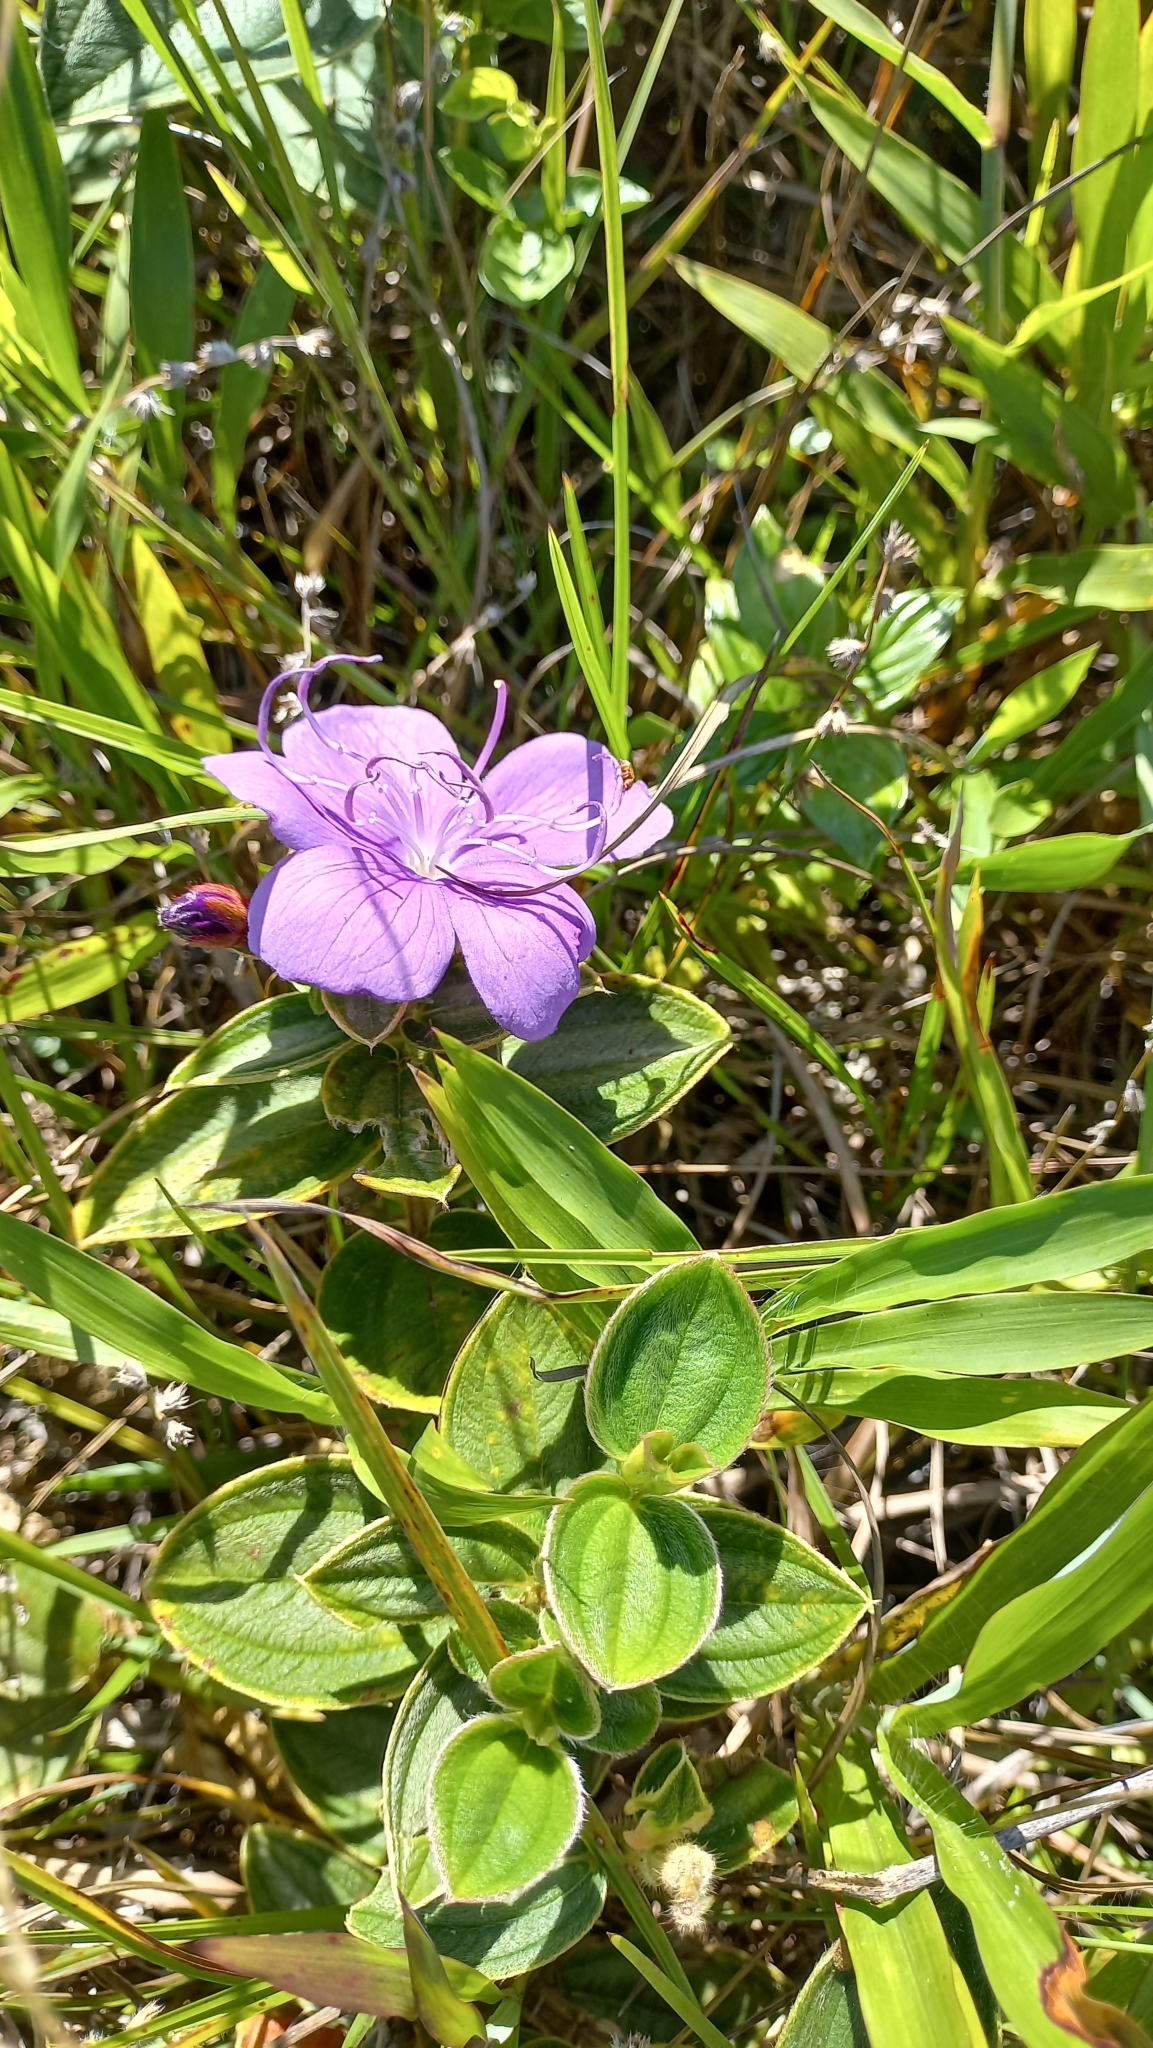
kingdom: Plantae
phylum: Tracheophyta
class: Magnoliopsida
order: Myrtales
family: Melastomataceae
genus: Pleroma
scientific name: Pleroma urvilleanum
